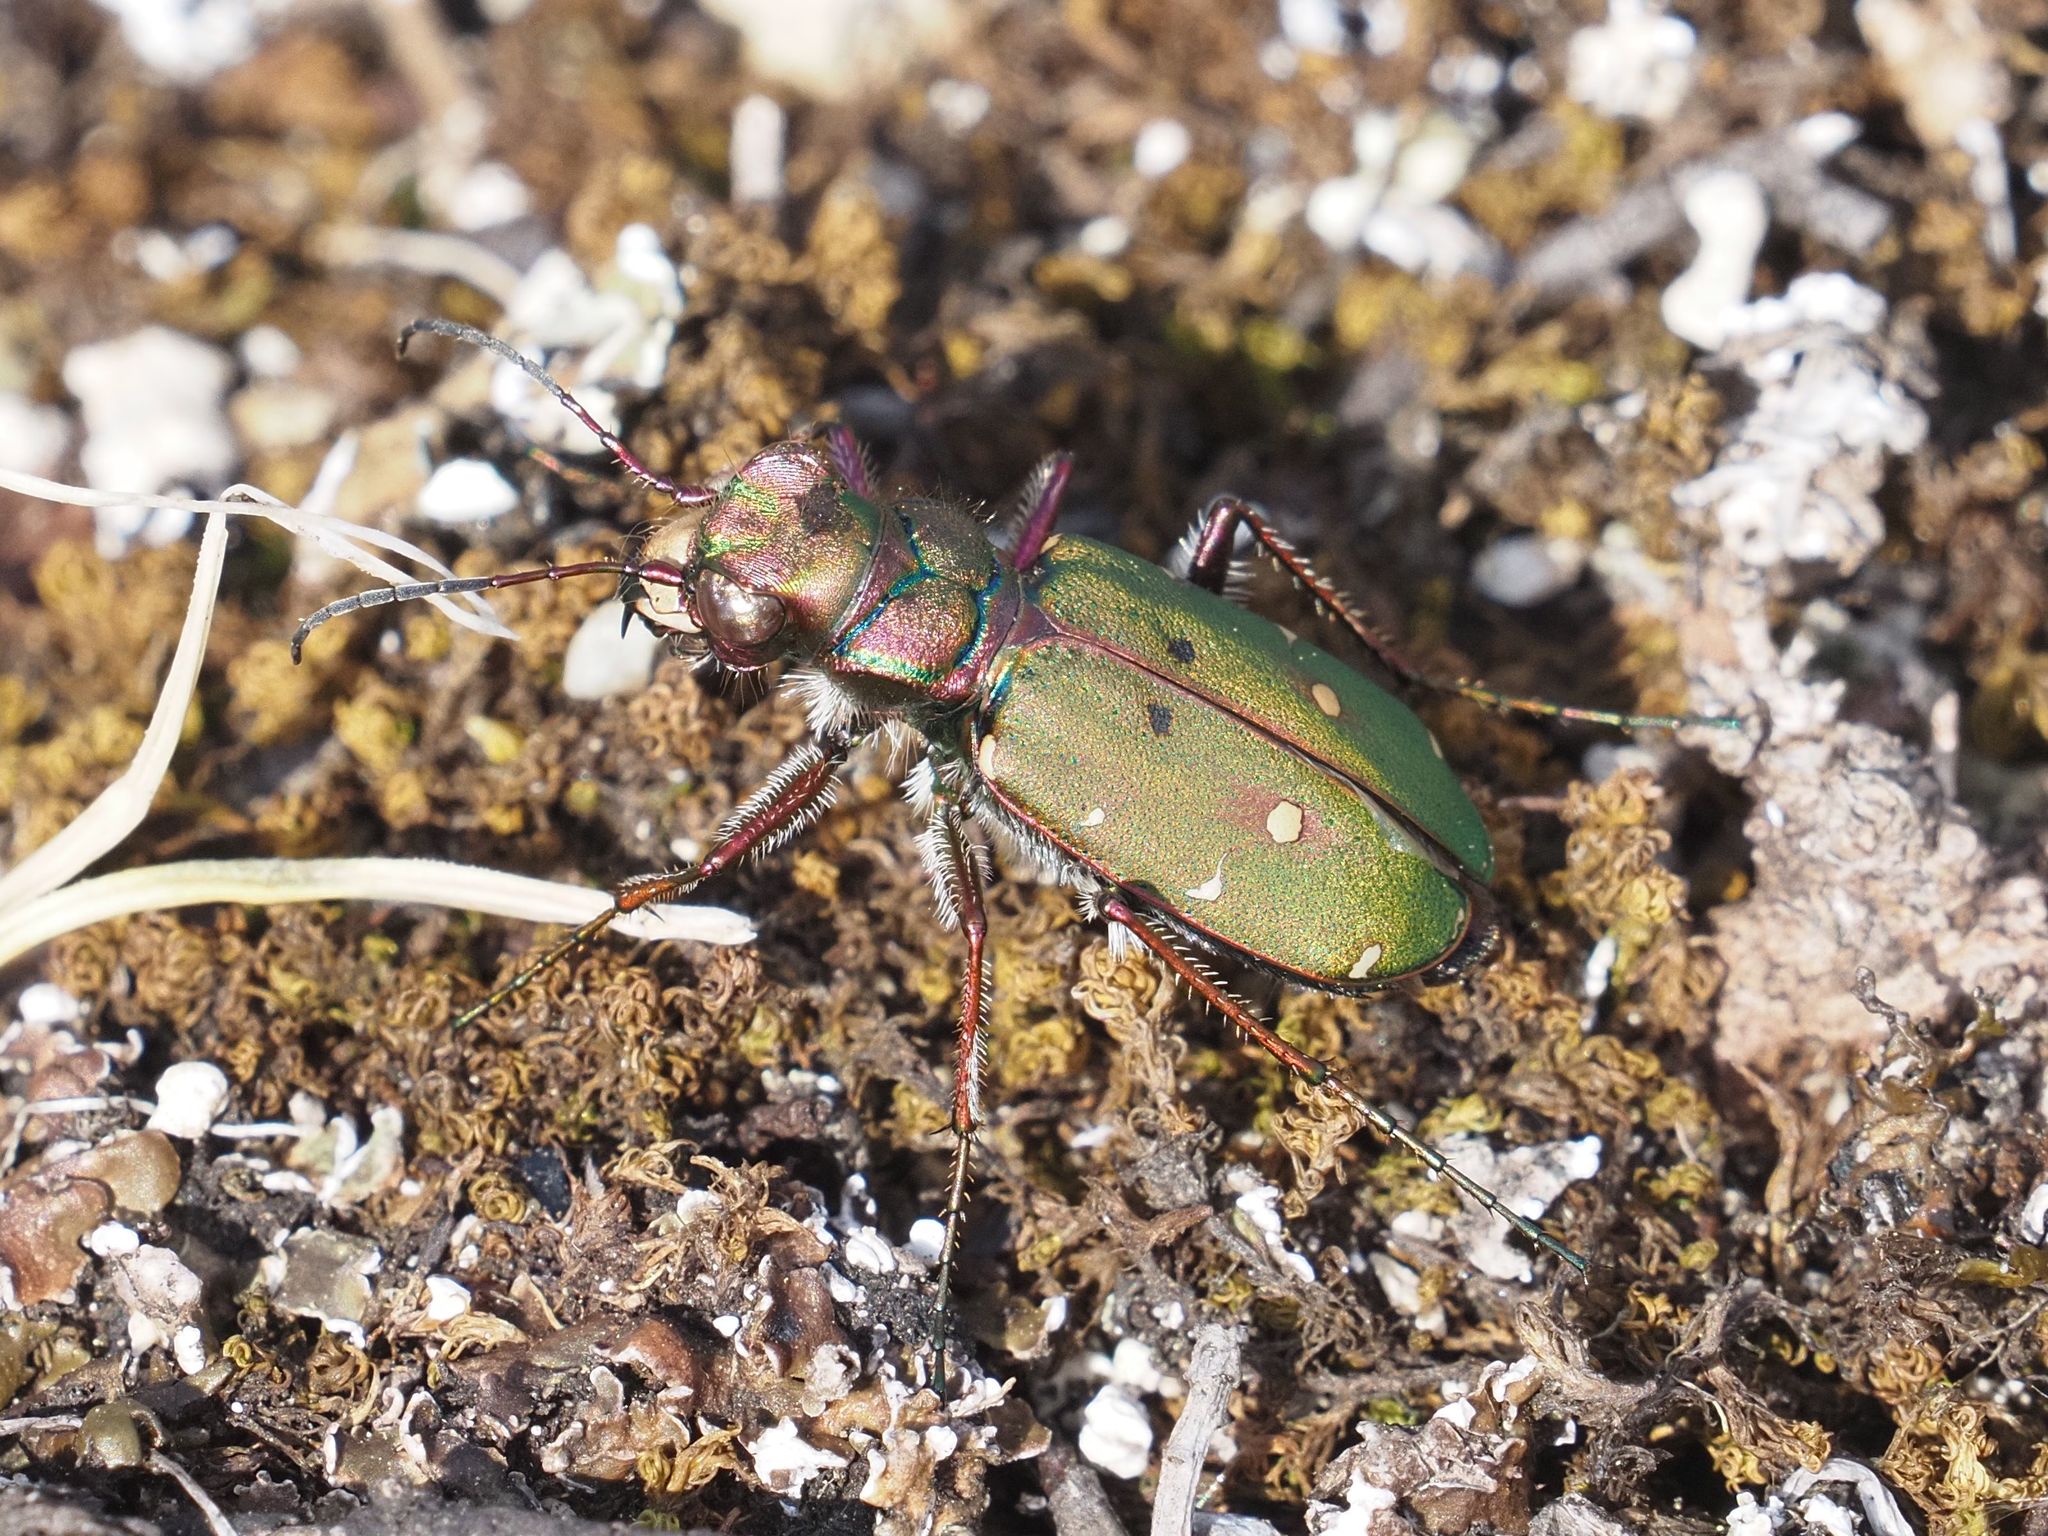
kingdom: Animalia
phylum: Arthropoda
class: Insecta
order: Coleoptera
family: Carabidae
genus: Cicindela
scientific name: Cicindela campestris
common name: Common tiger beetle
